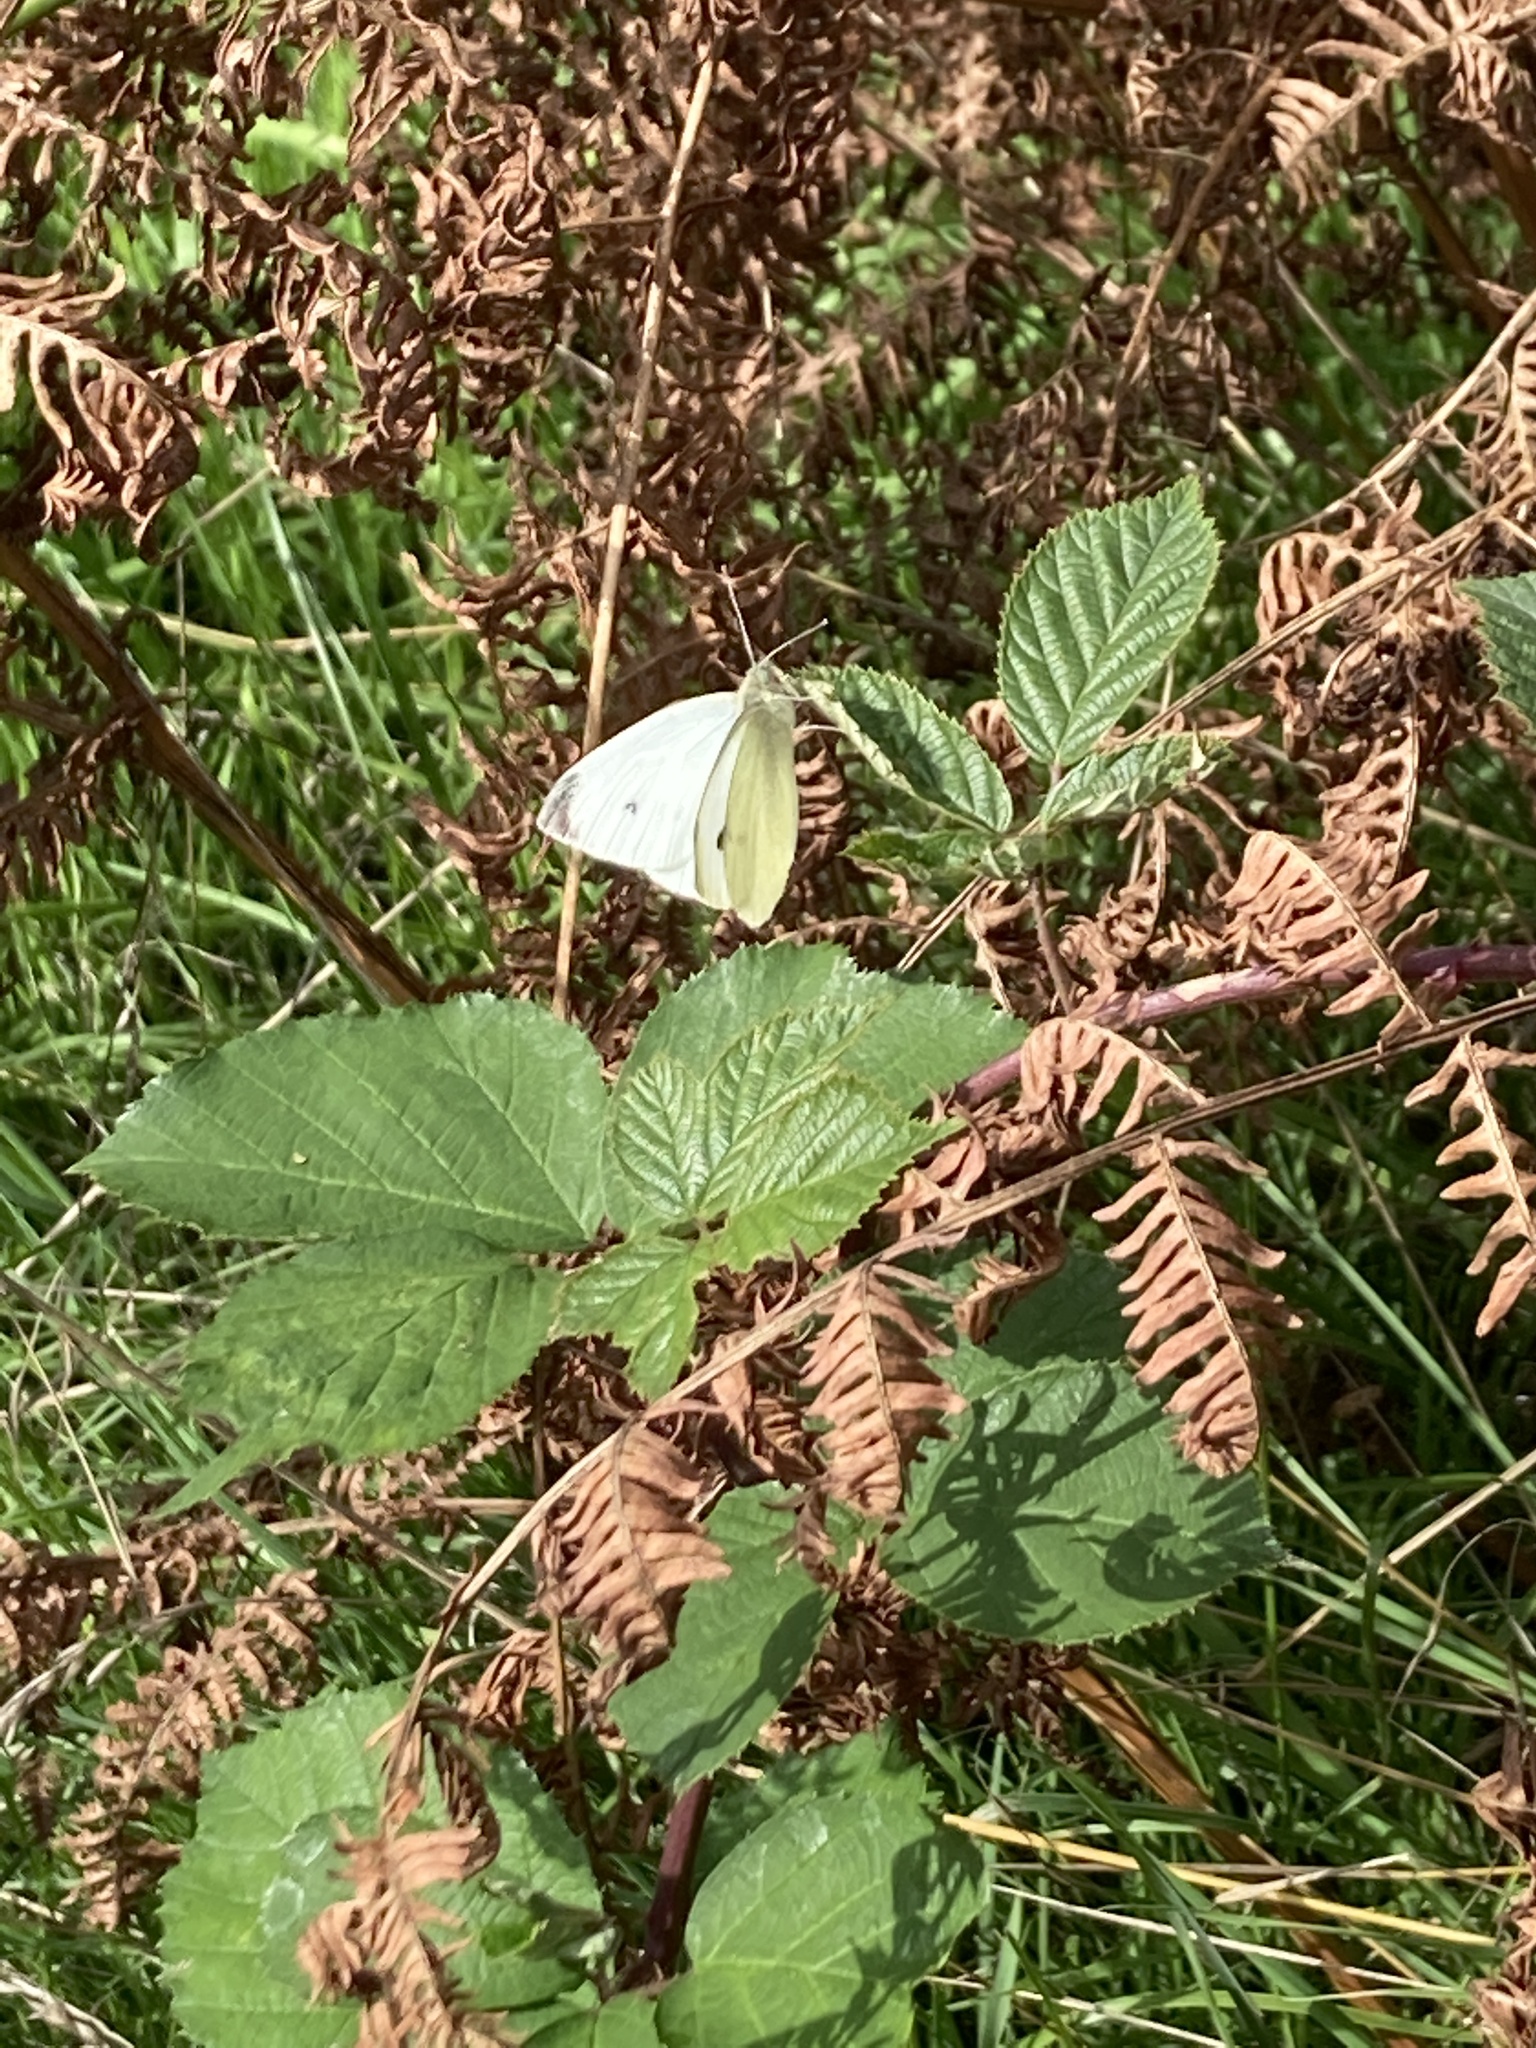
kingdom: Animalia
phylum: Arthropoda
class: Insecta
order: Lepidoptera
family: Pieridae
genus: Pieris
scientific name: Pieris rapae
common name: Small white
